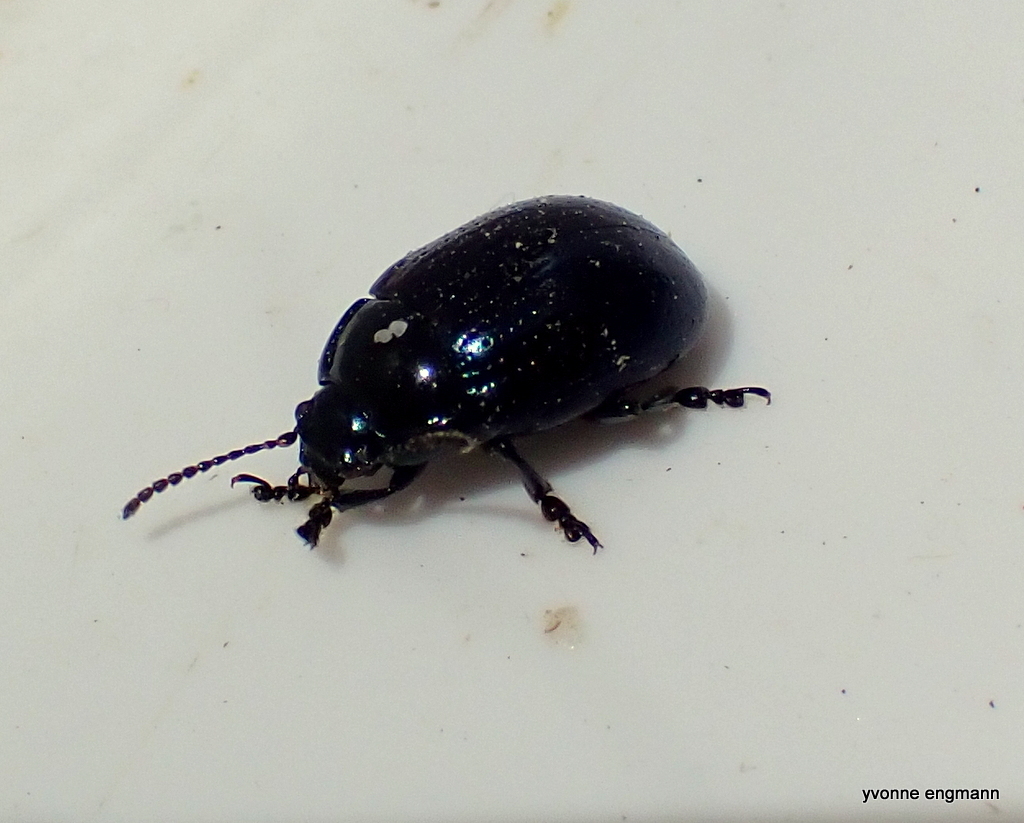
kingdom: Animalia
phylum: Arthropoda
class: Insecta
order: Coleoptera
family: Chrysomelidae
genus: Chrysolina
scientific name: Chrysolina oricalcia
